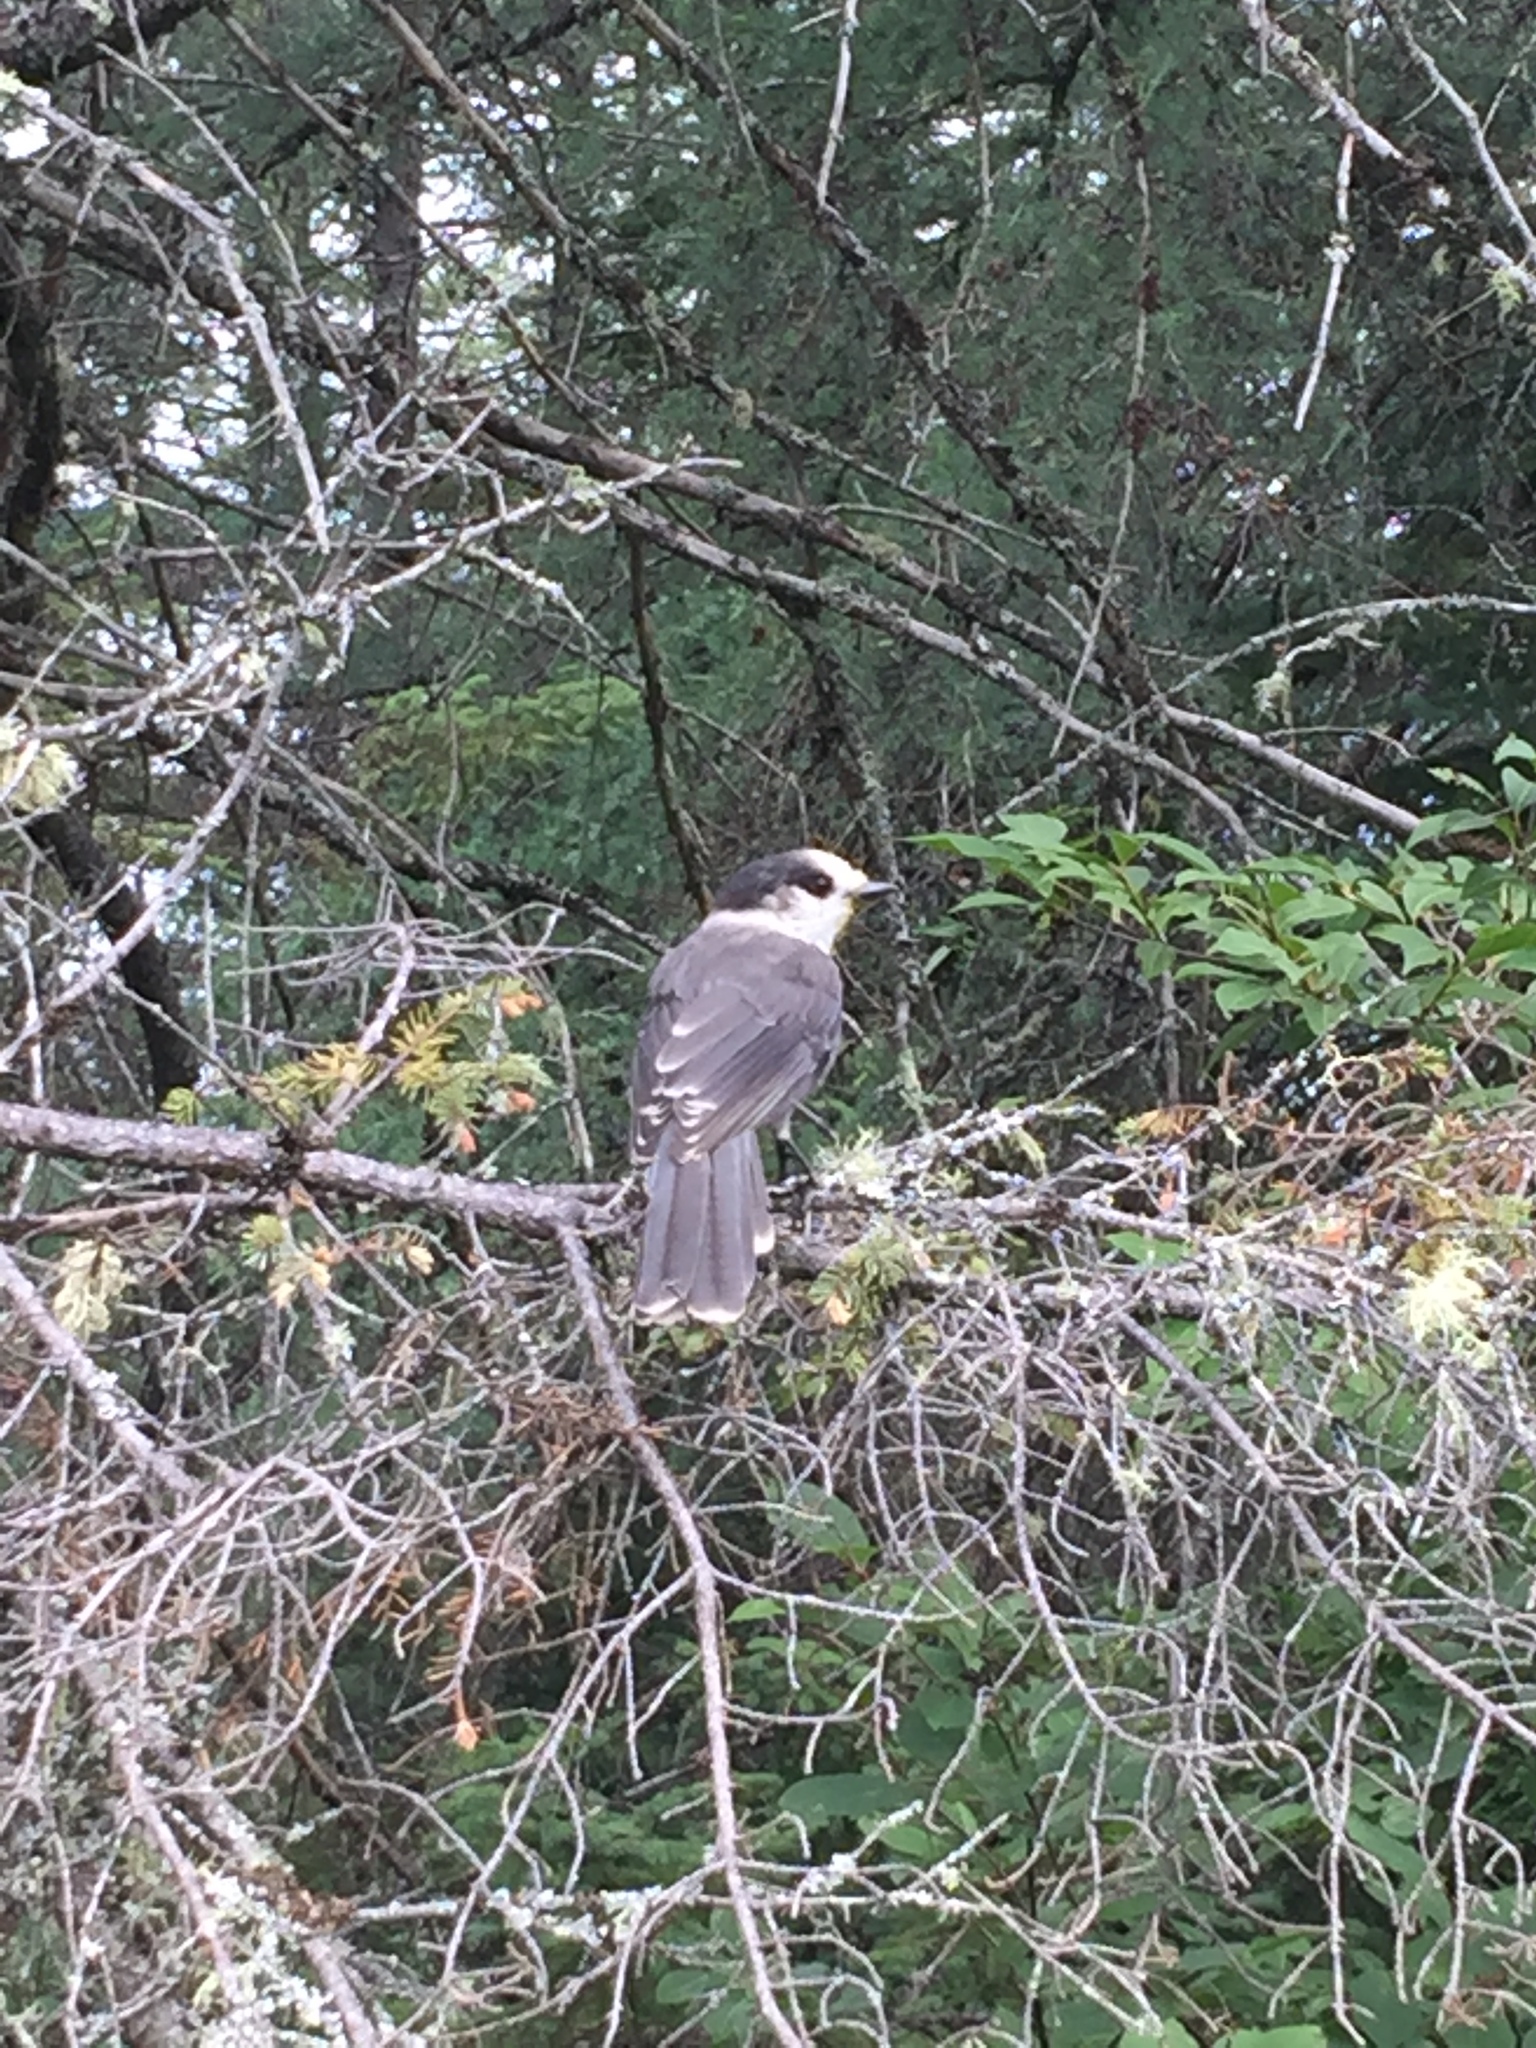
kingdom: Animalia
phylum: Chordata
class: Aves
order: Passeriformes
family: Corvidae
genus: Perisoreus
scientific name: Perisoreus canadensis
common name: Gray jay
